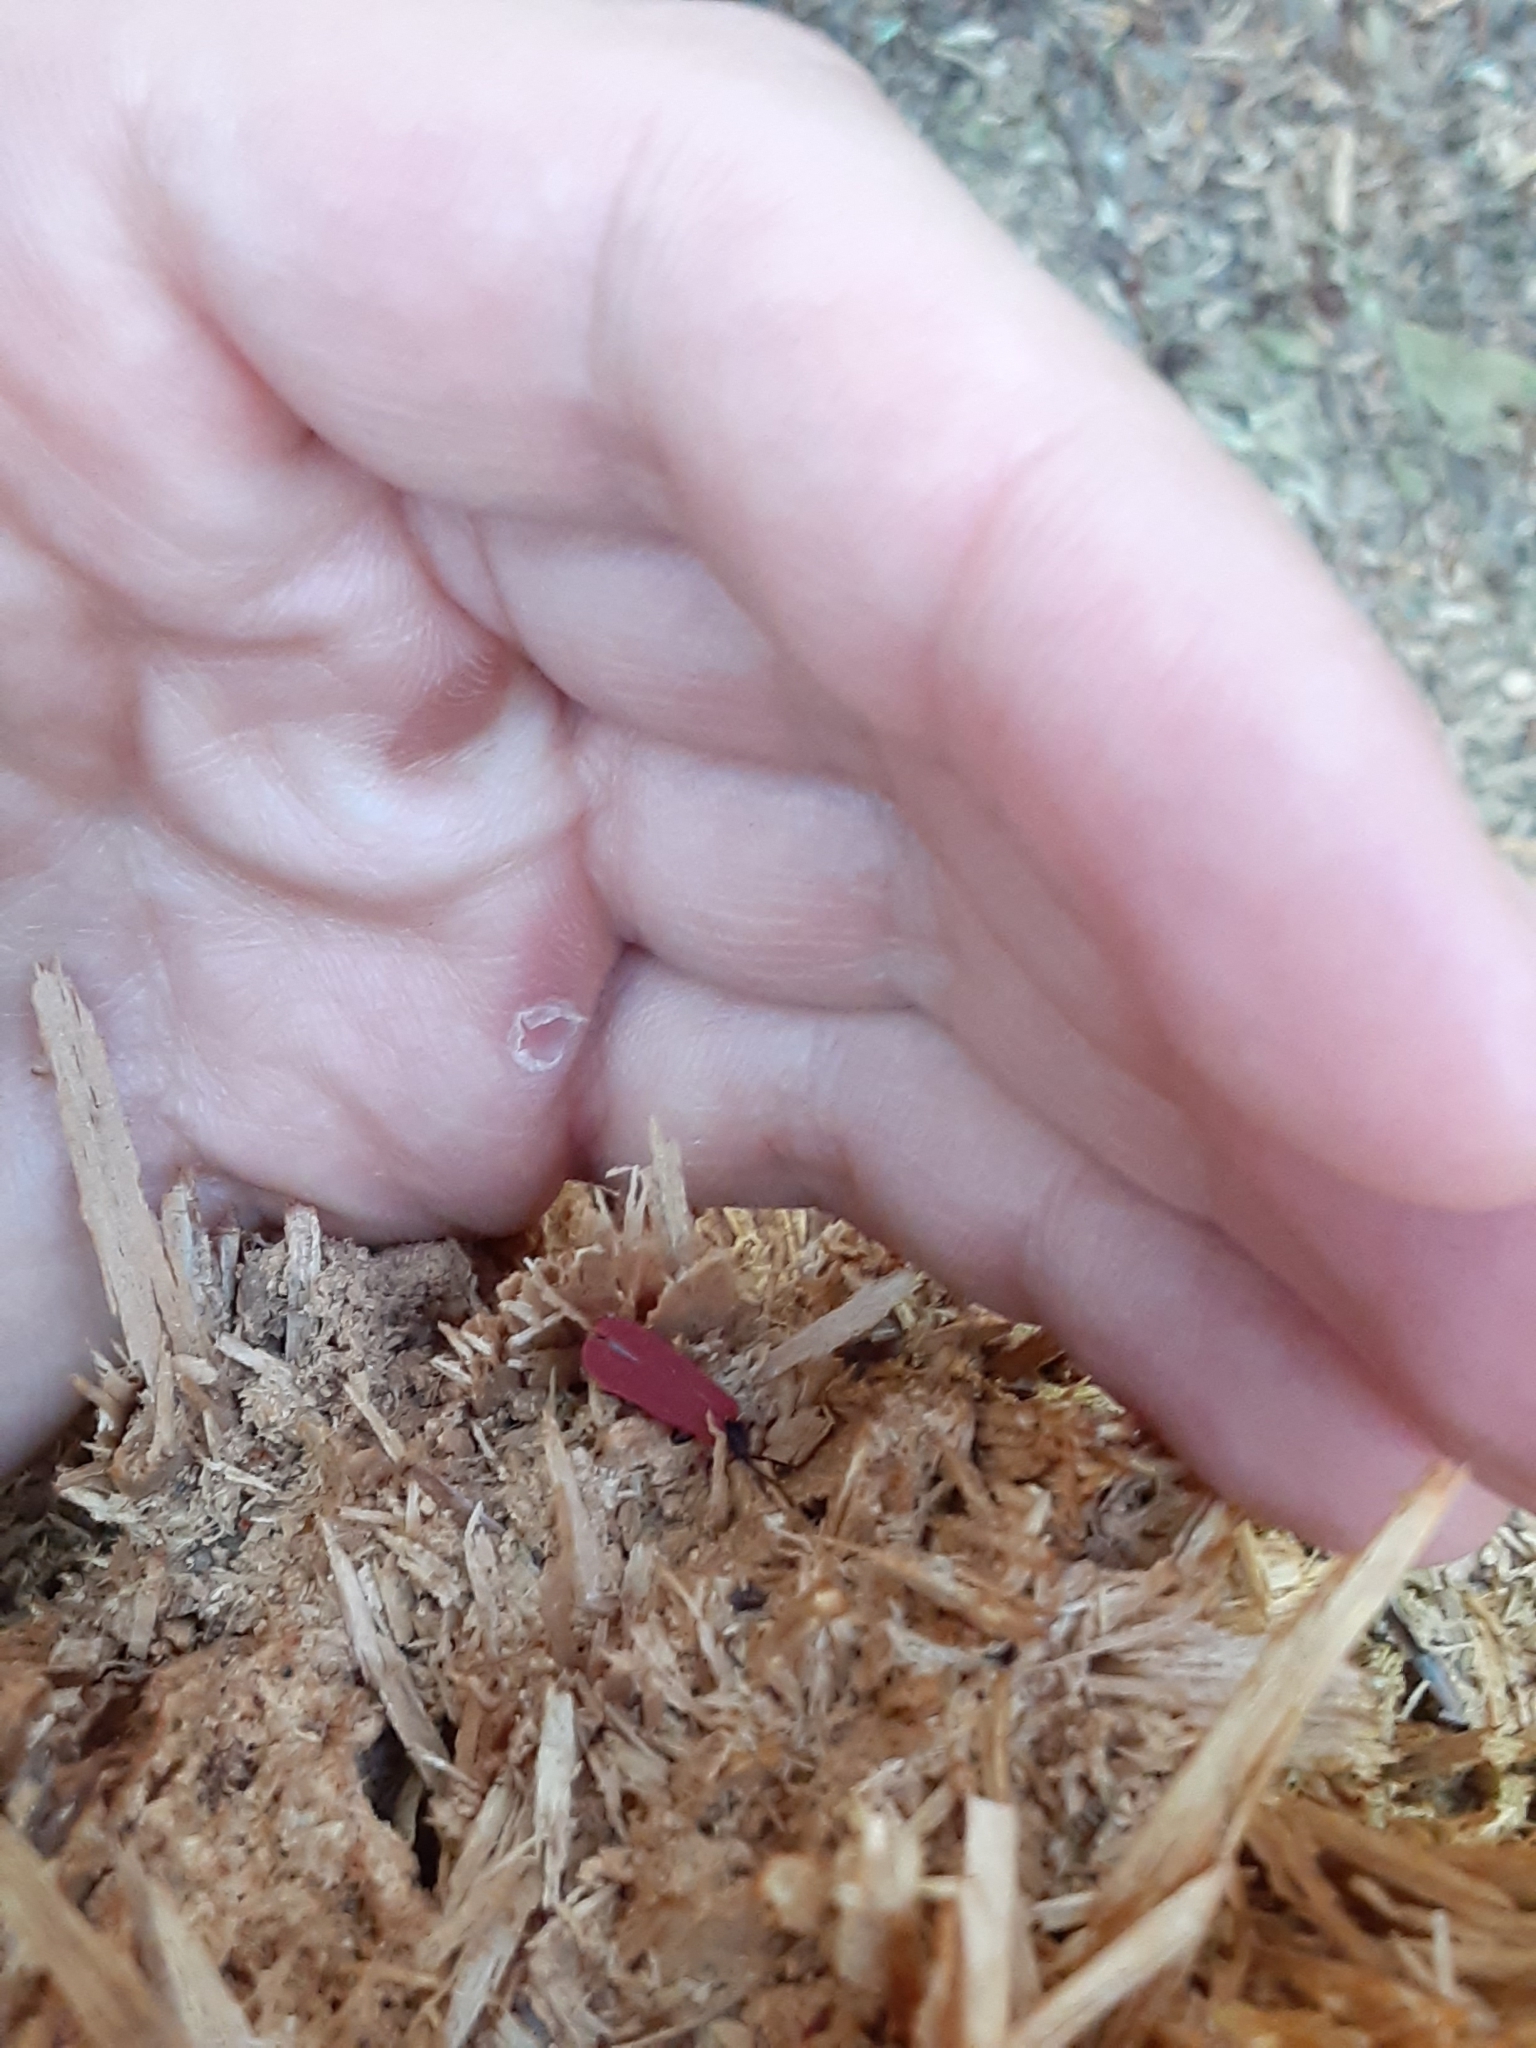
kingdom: Animalia
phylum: Arthropoda
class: Insecta
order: Coleoptera
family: Lycidae
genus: Dictyoptera
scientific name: Dictyoptera aurora
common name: Golden net-winged beetle
